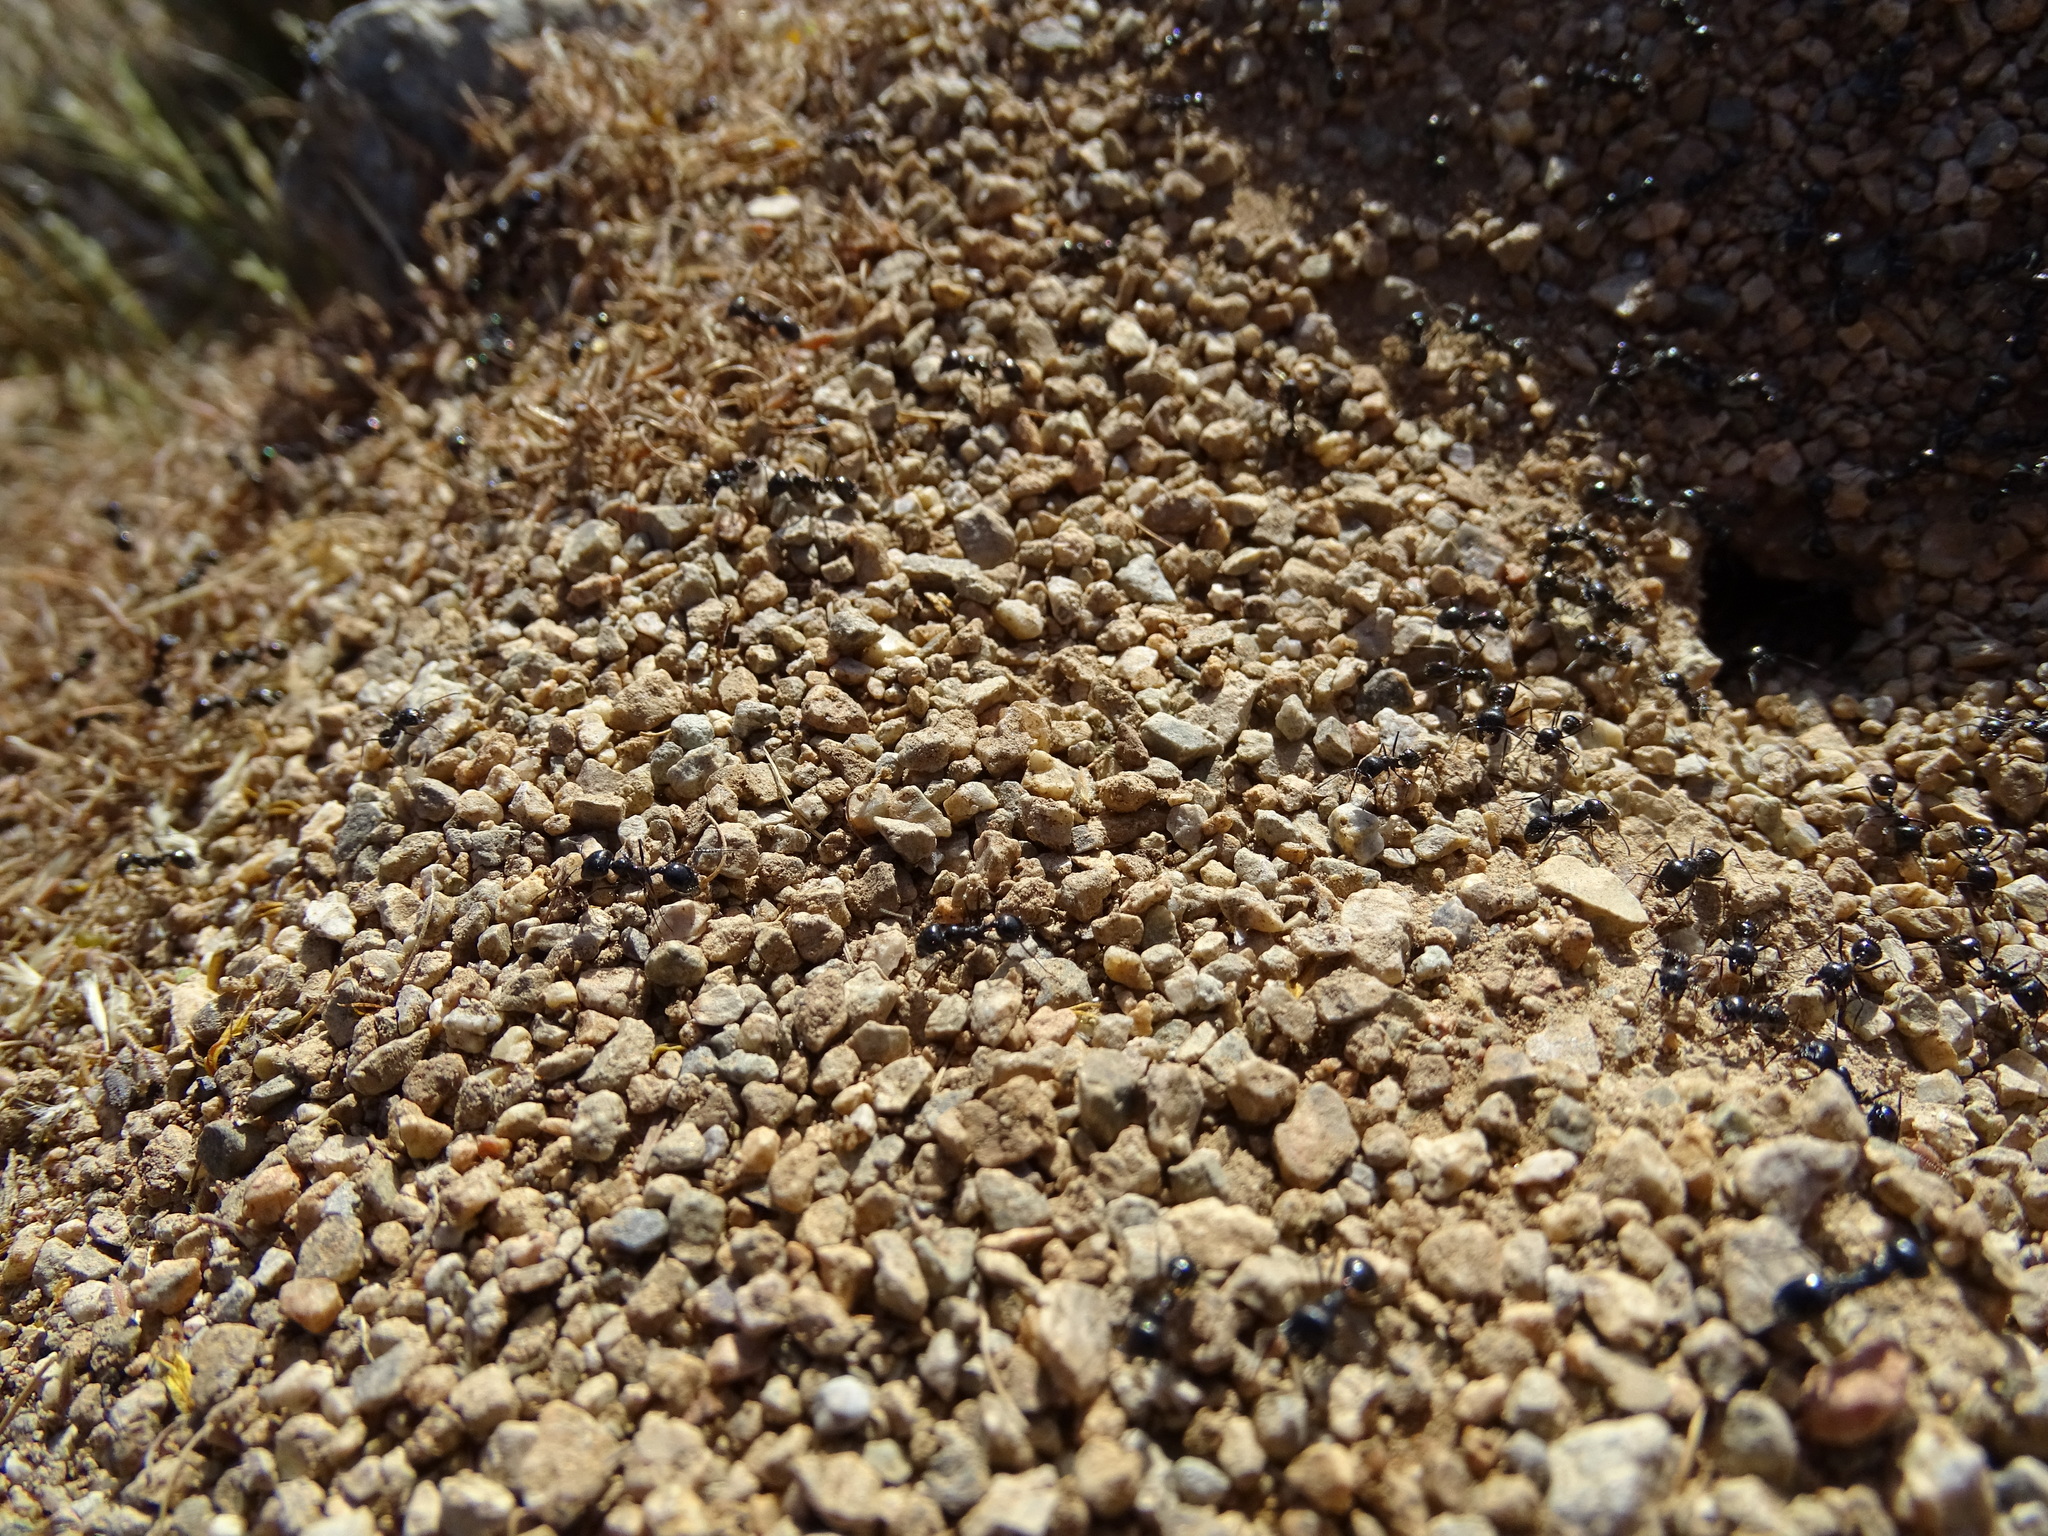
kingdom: Animalia
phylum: Arthropoda
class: Insecta
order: Hymenoptera
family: Formicidae
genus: Messor
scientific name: Messor pergandei
